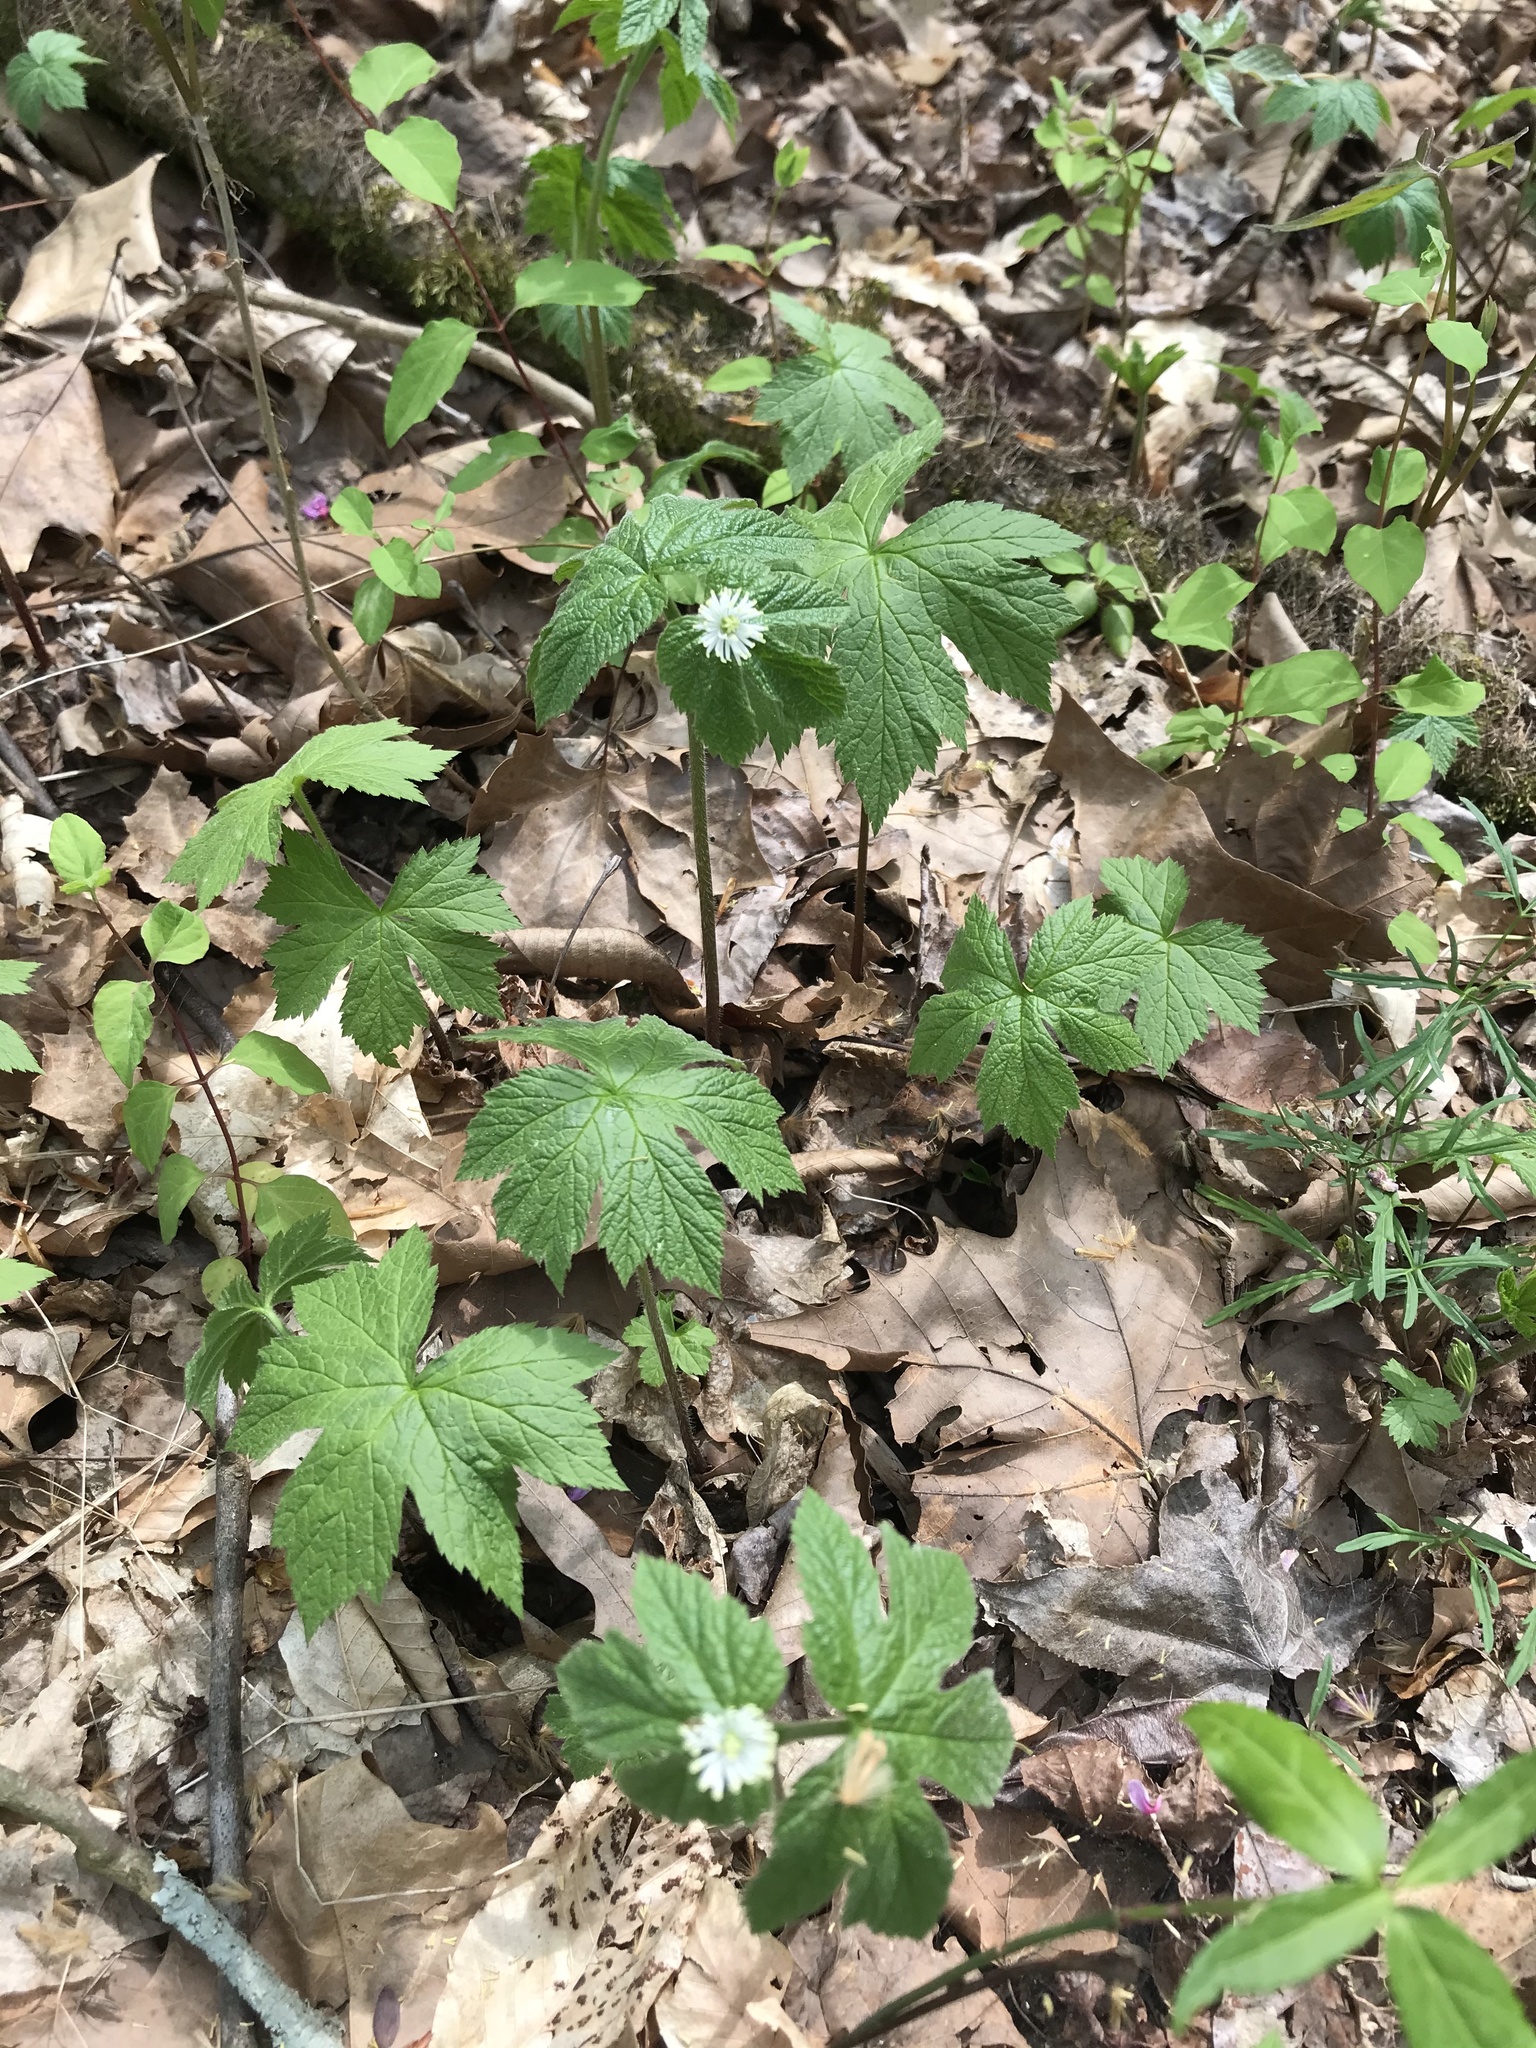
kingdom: Plantae
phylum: Tracheophyta
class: Magnoliopsida
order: Ranunculales
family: Ranunculaceae
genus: Hydrastis
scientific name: Hydrastis canadensis
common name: Goldenseal
